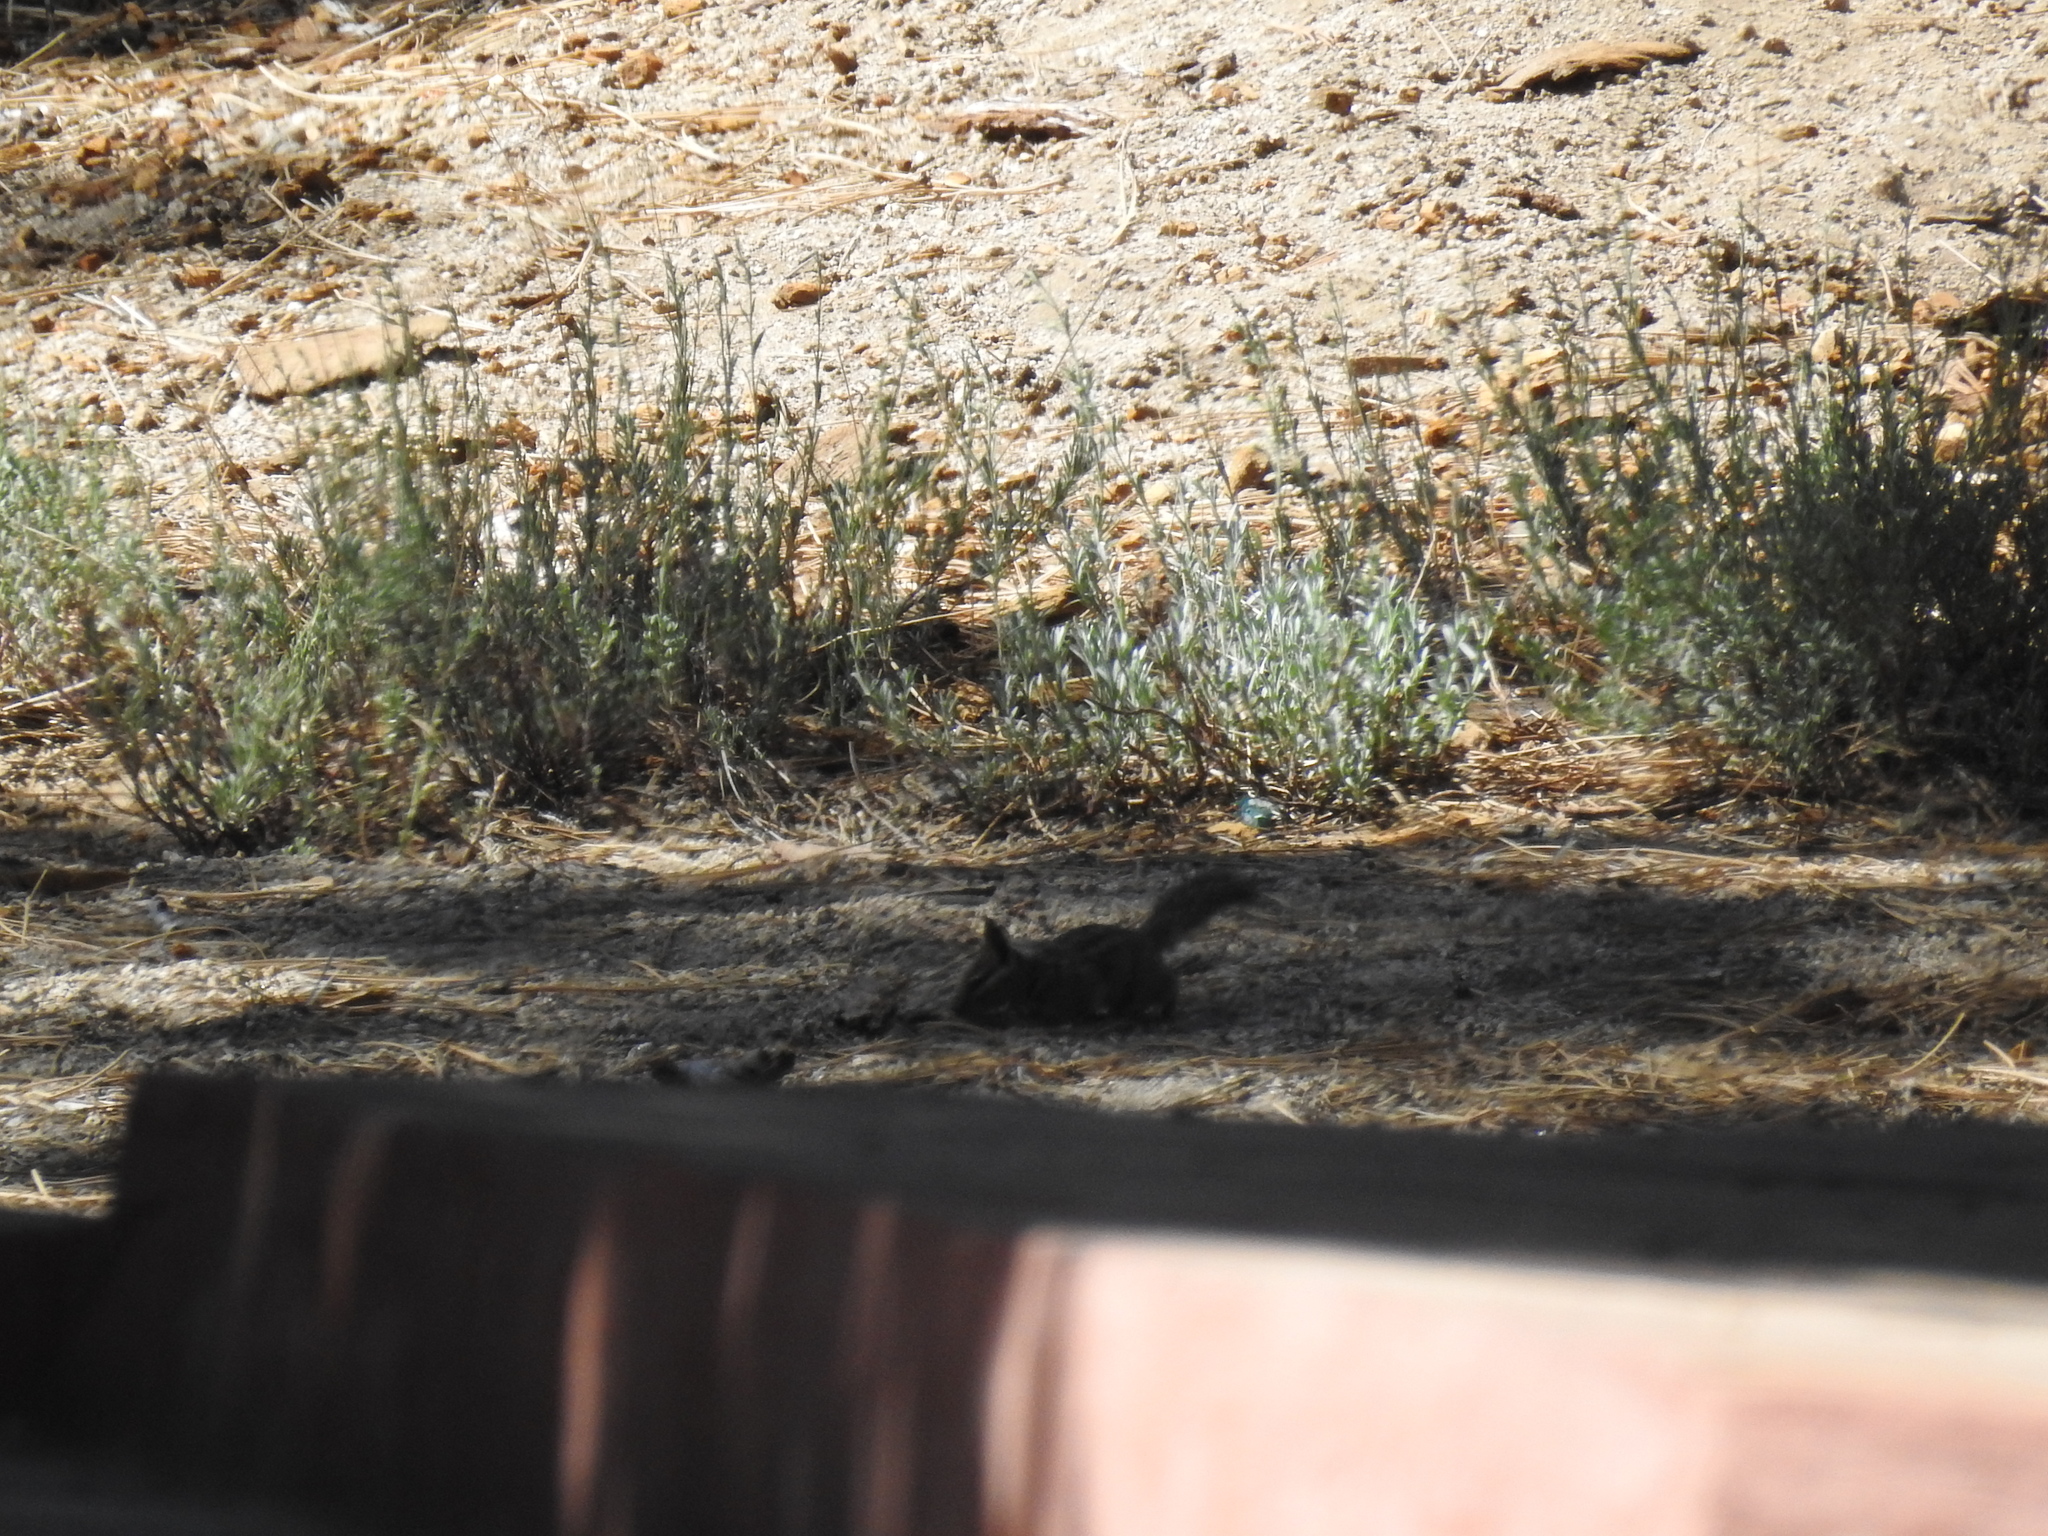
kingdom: Animalia
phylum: Chordata
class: Mammalia
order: Rodentia
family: Sciuridae
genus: Tamias
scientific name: Tamias obscurus
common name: California chipmunk
